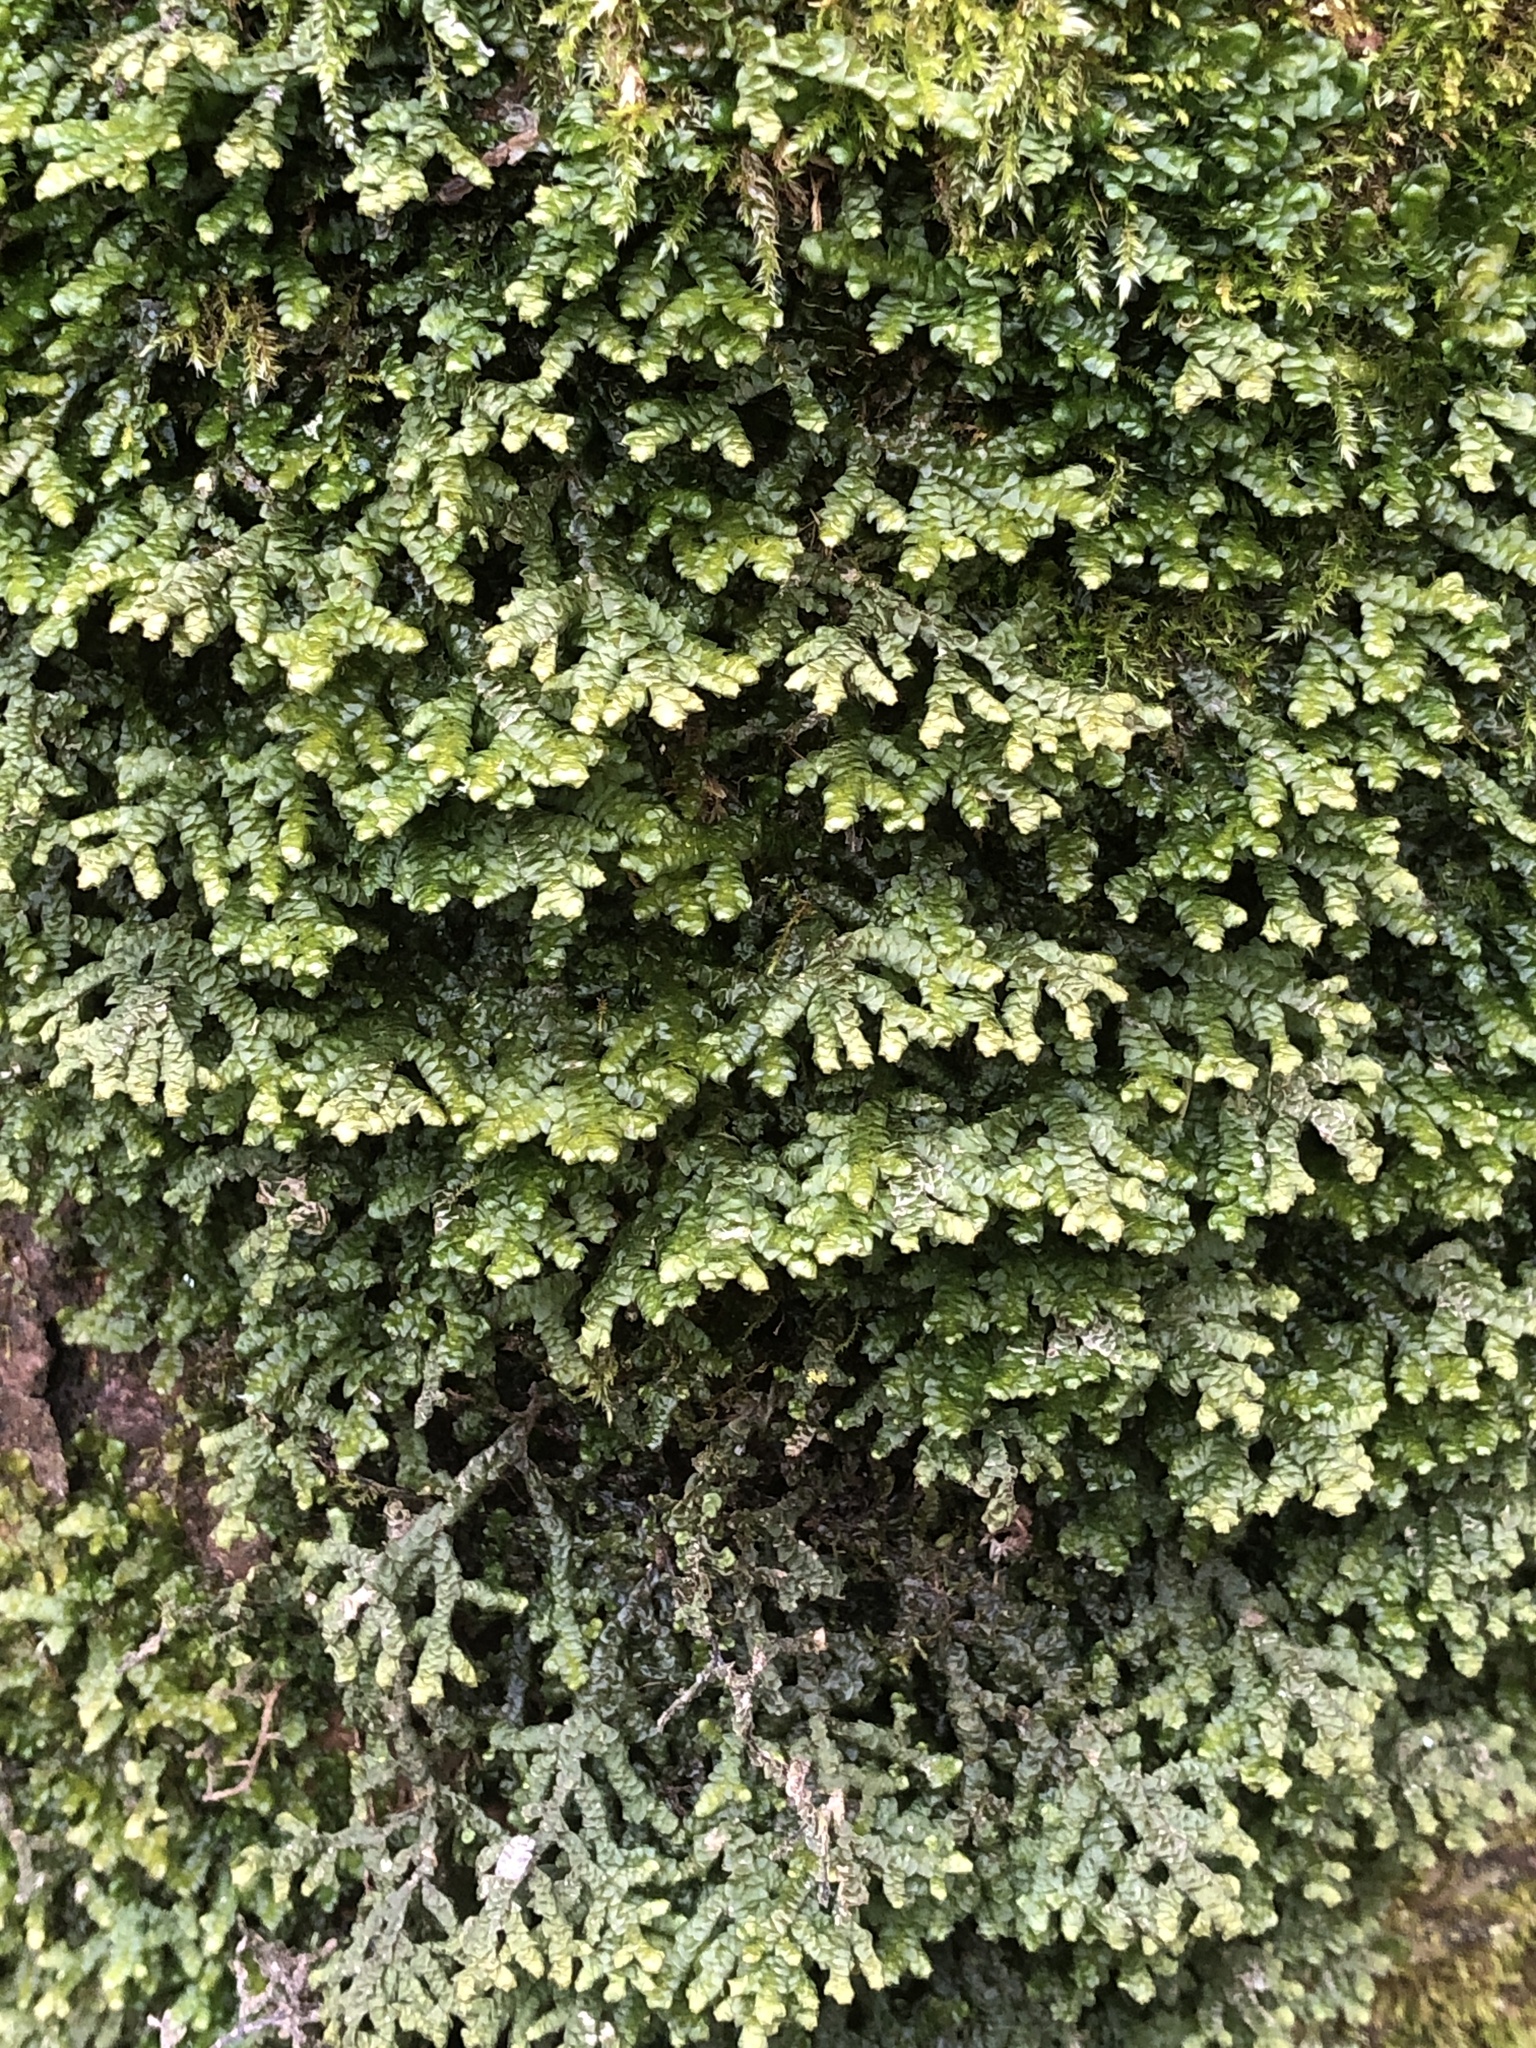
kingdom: Plantae
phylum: Marchantiophyta
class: Jungermanniopsida
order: Porellales
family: Porellaceae
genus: Porella
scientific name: Porella platyphylla
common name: Wall scalewort
